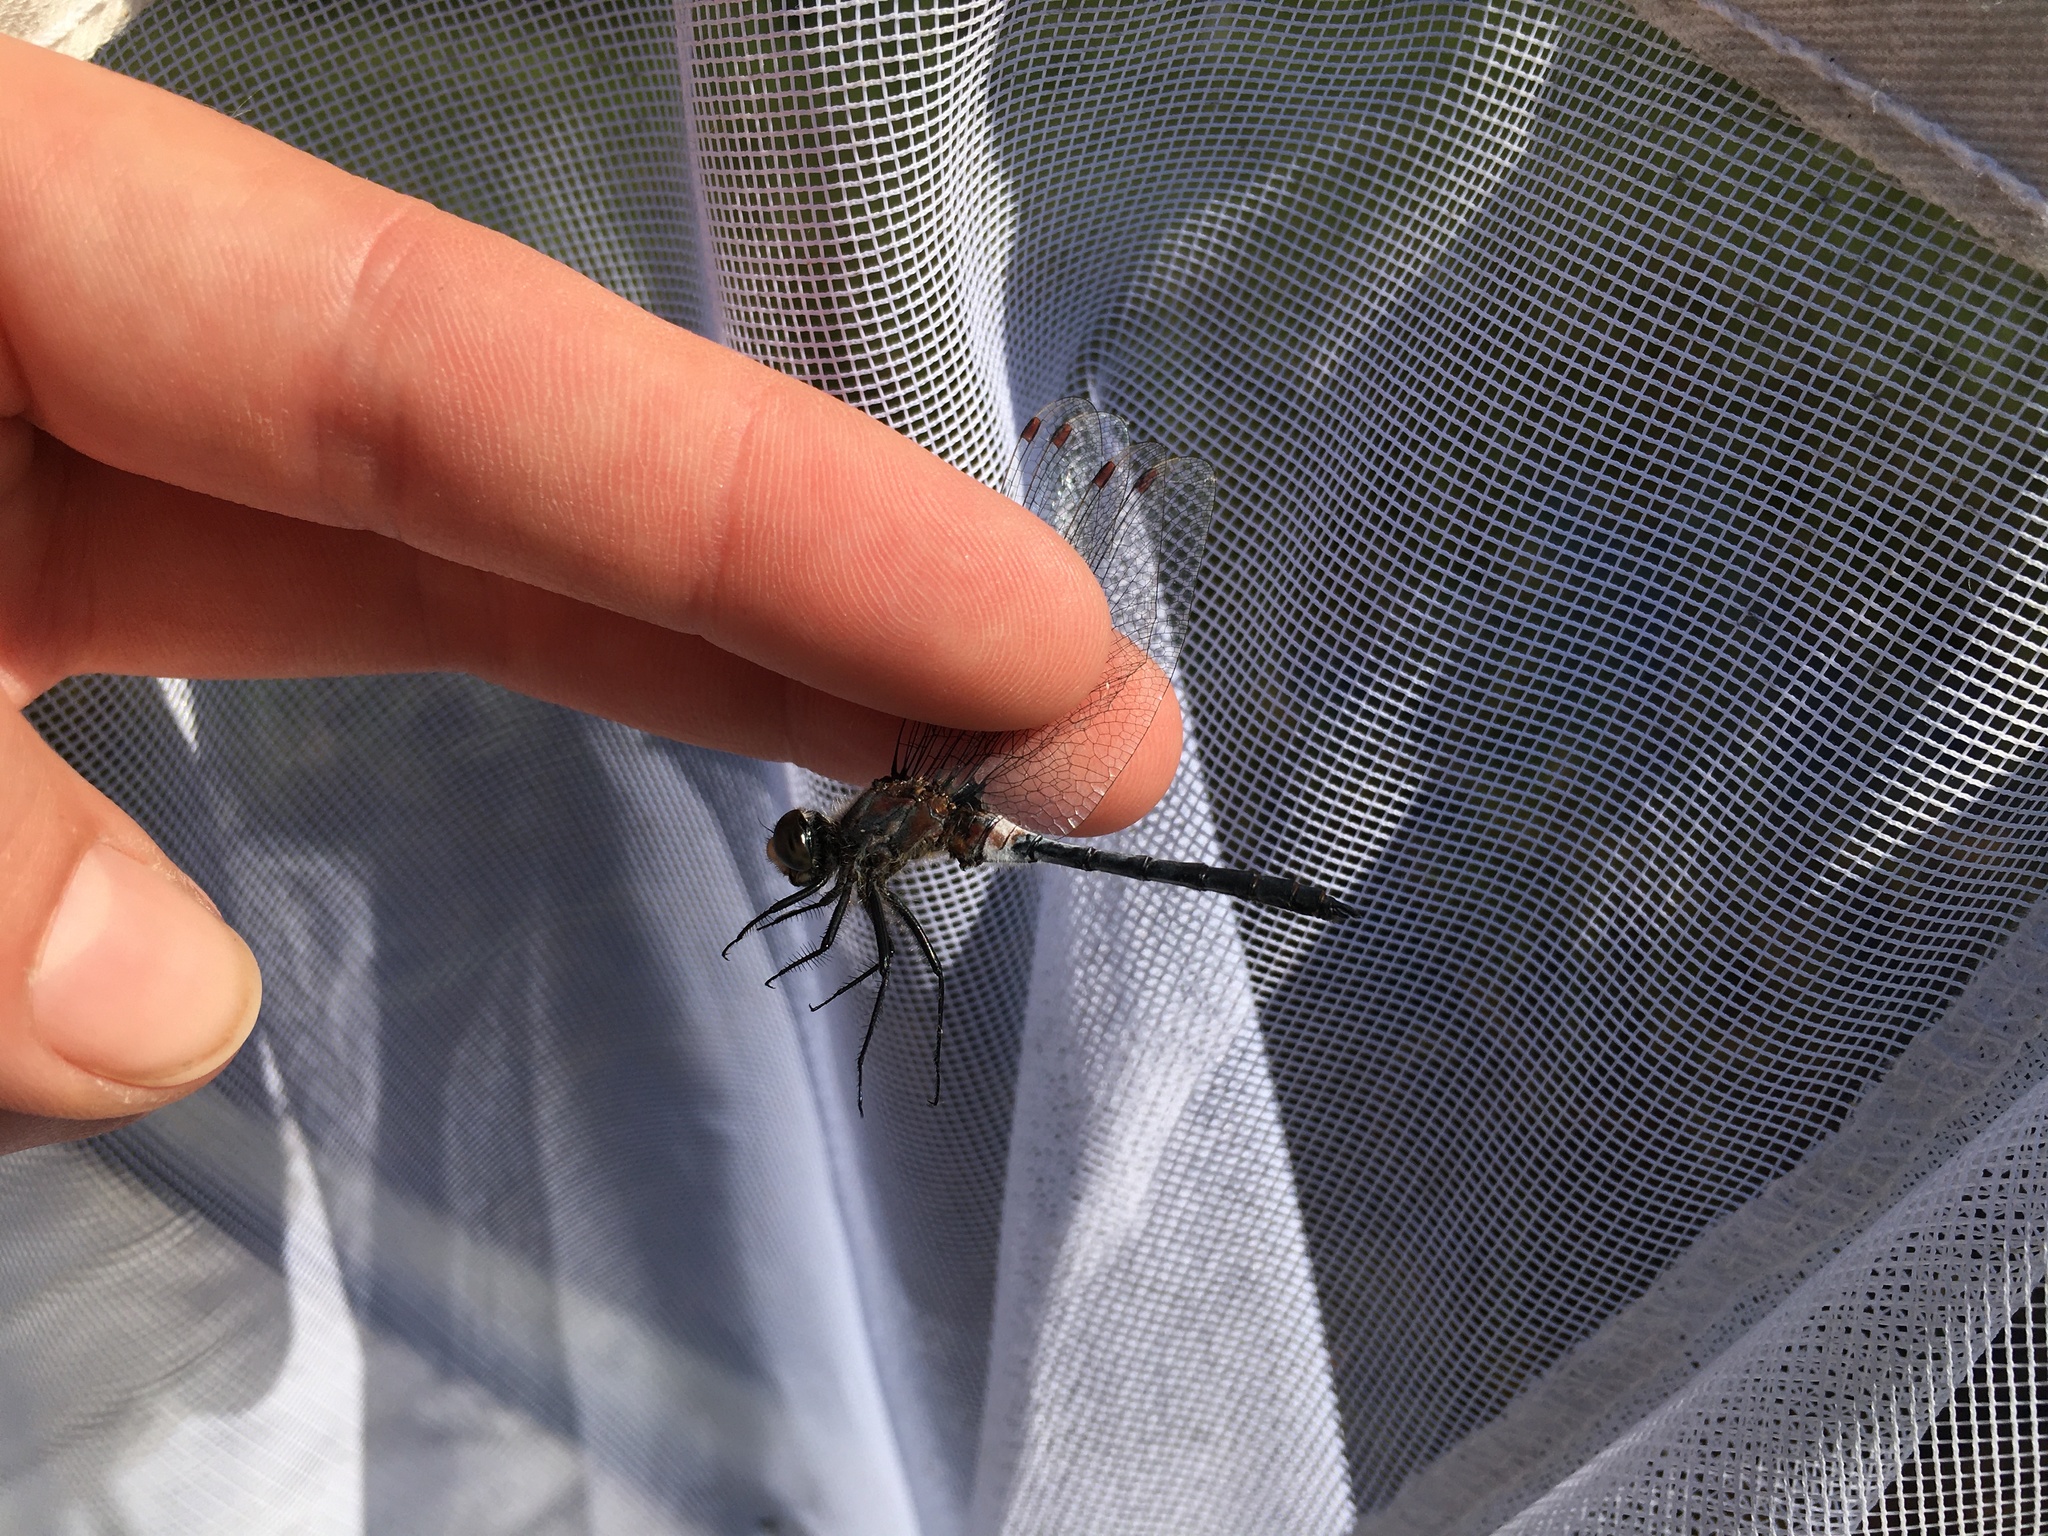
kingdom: Animalia
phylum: Arthropoda
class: Insecta
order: Odonata
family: Libellulidae
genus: Leucorrhinia
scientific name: Leucorrhinia frigida
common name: Frosted whiteface
